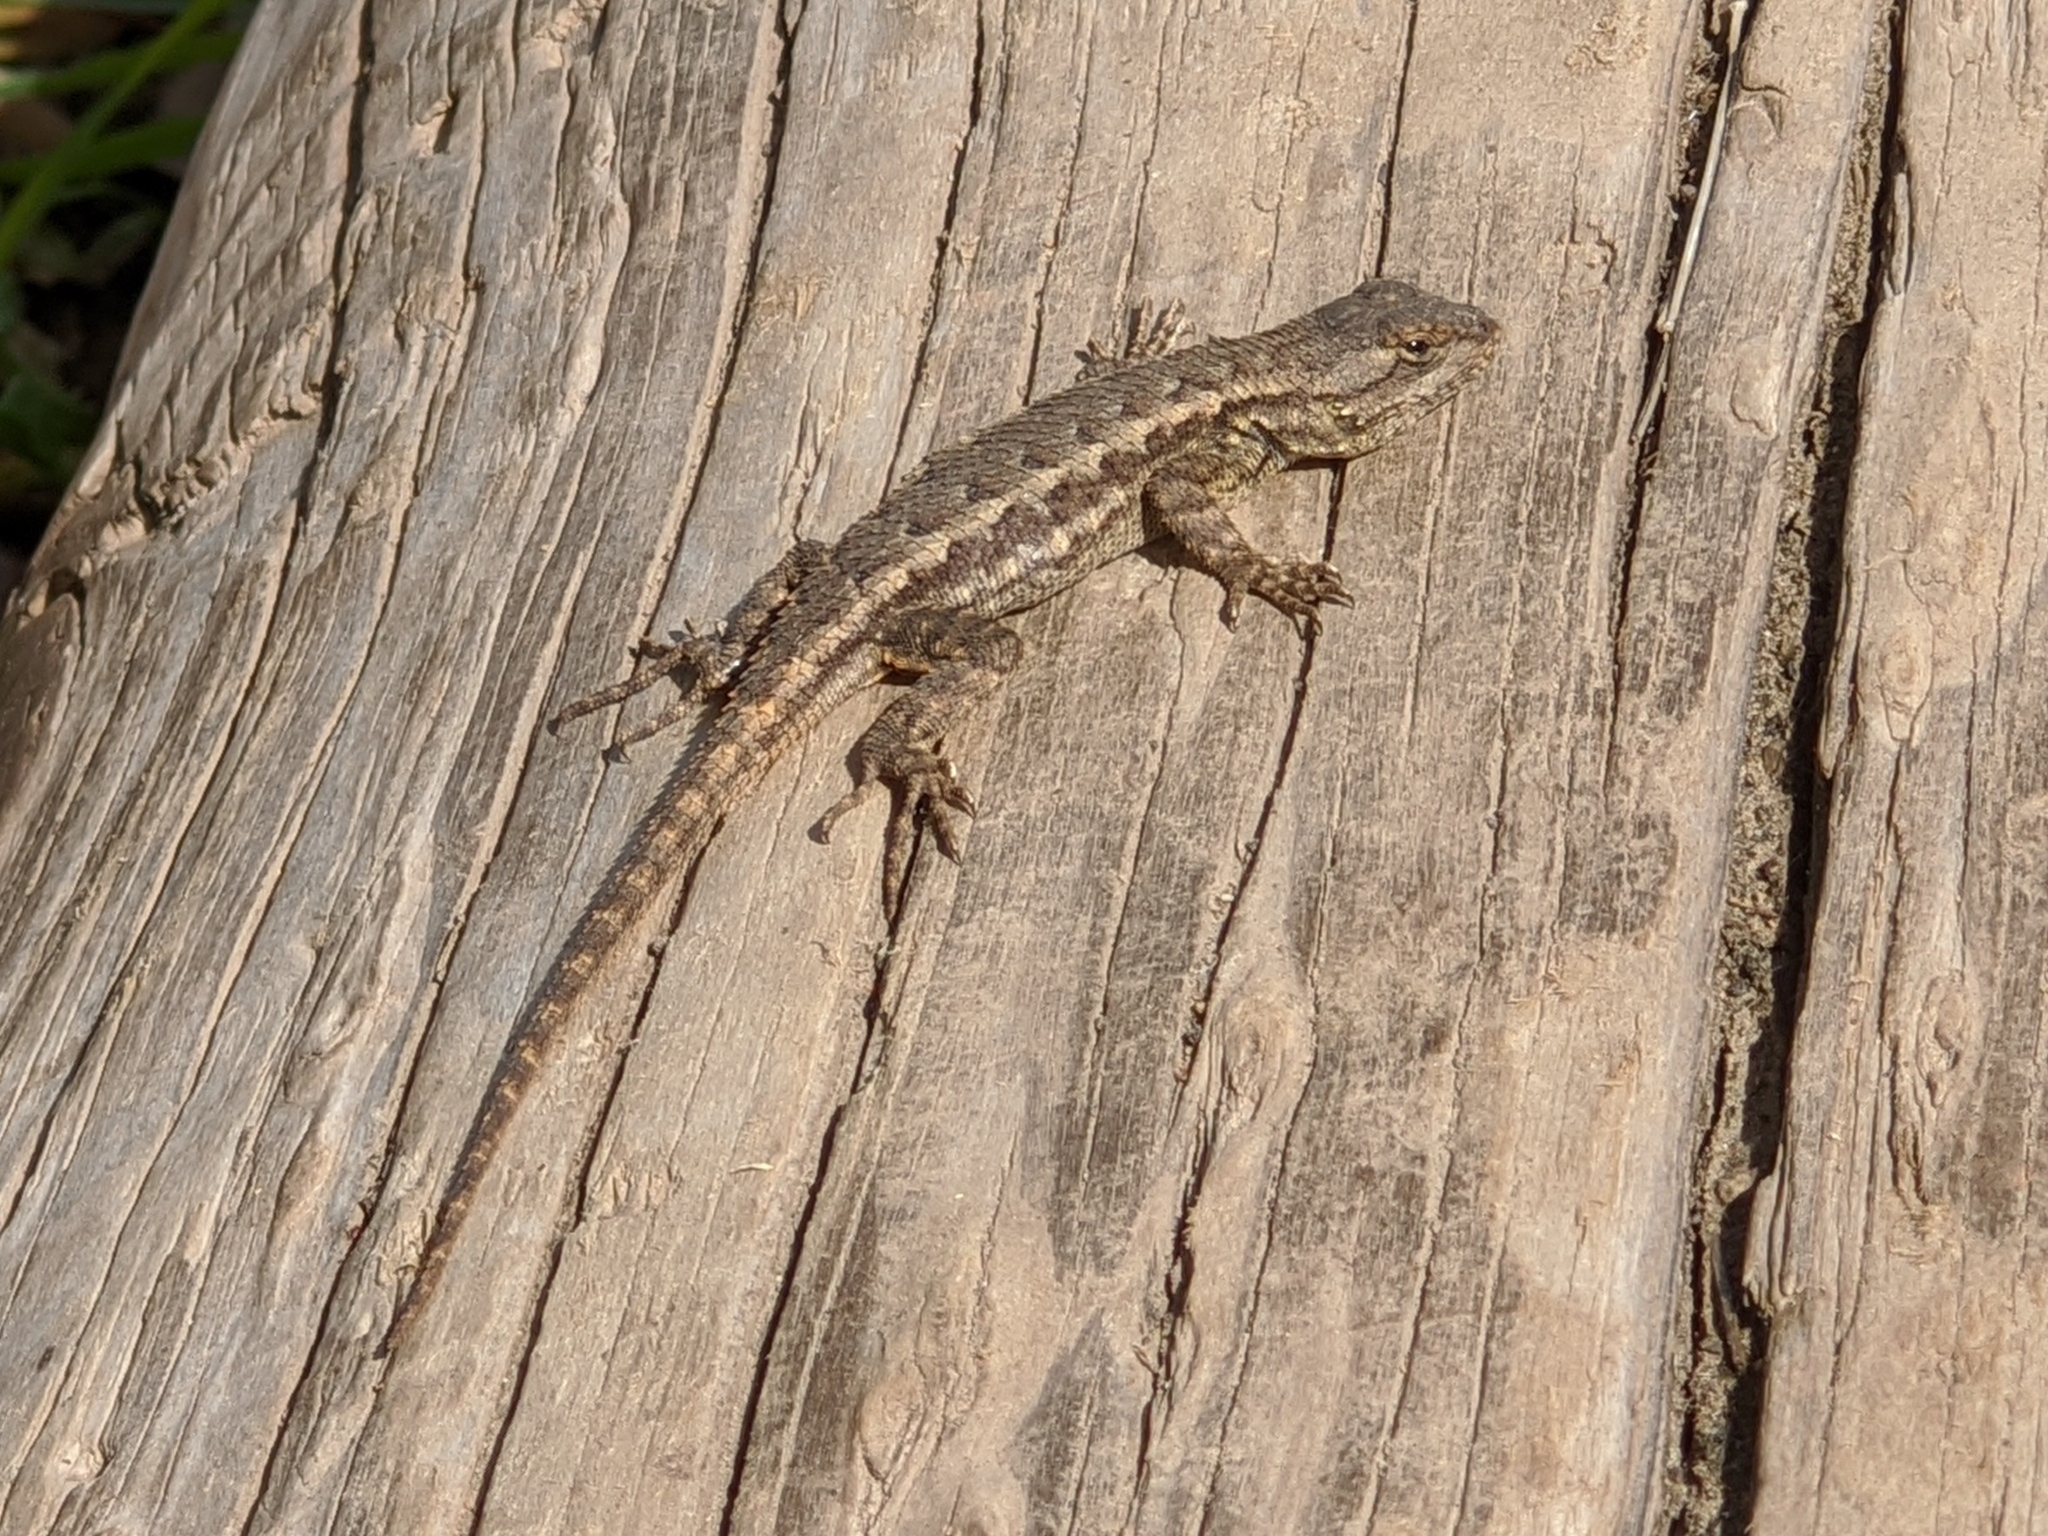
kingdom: Animalia
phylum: Chordata
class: Squamata
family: Phrynosomatidae
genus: Sceloporus
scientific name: Sceloporus occidentalis
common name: Western fence lizard
